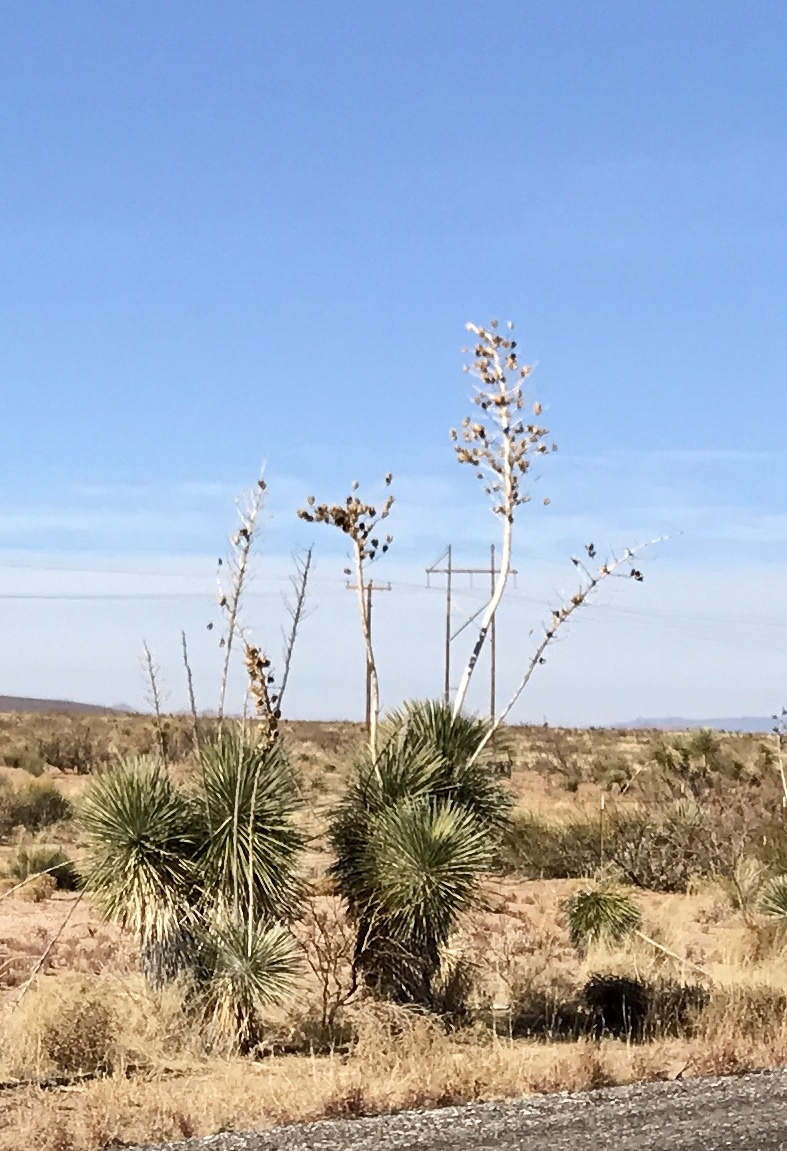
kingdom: Plantae
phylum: Tracheophyta
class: Liliopsida
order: Asparagales
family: Asparagaceae
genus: Yucca
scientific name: Yucca elata
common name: Palmella
